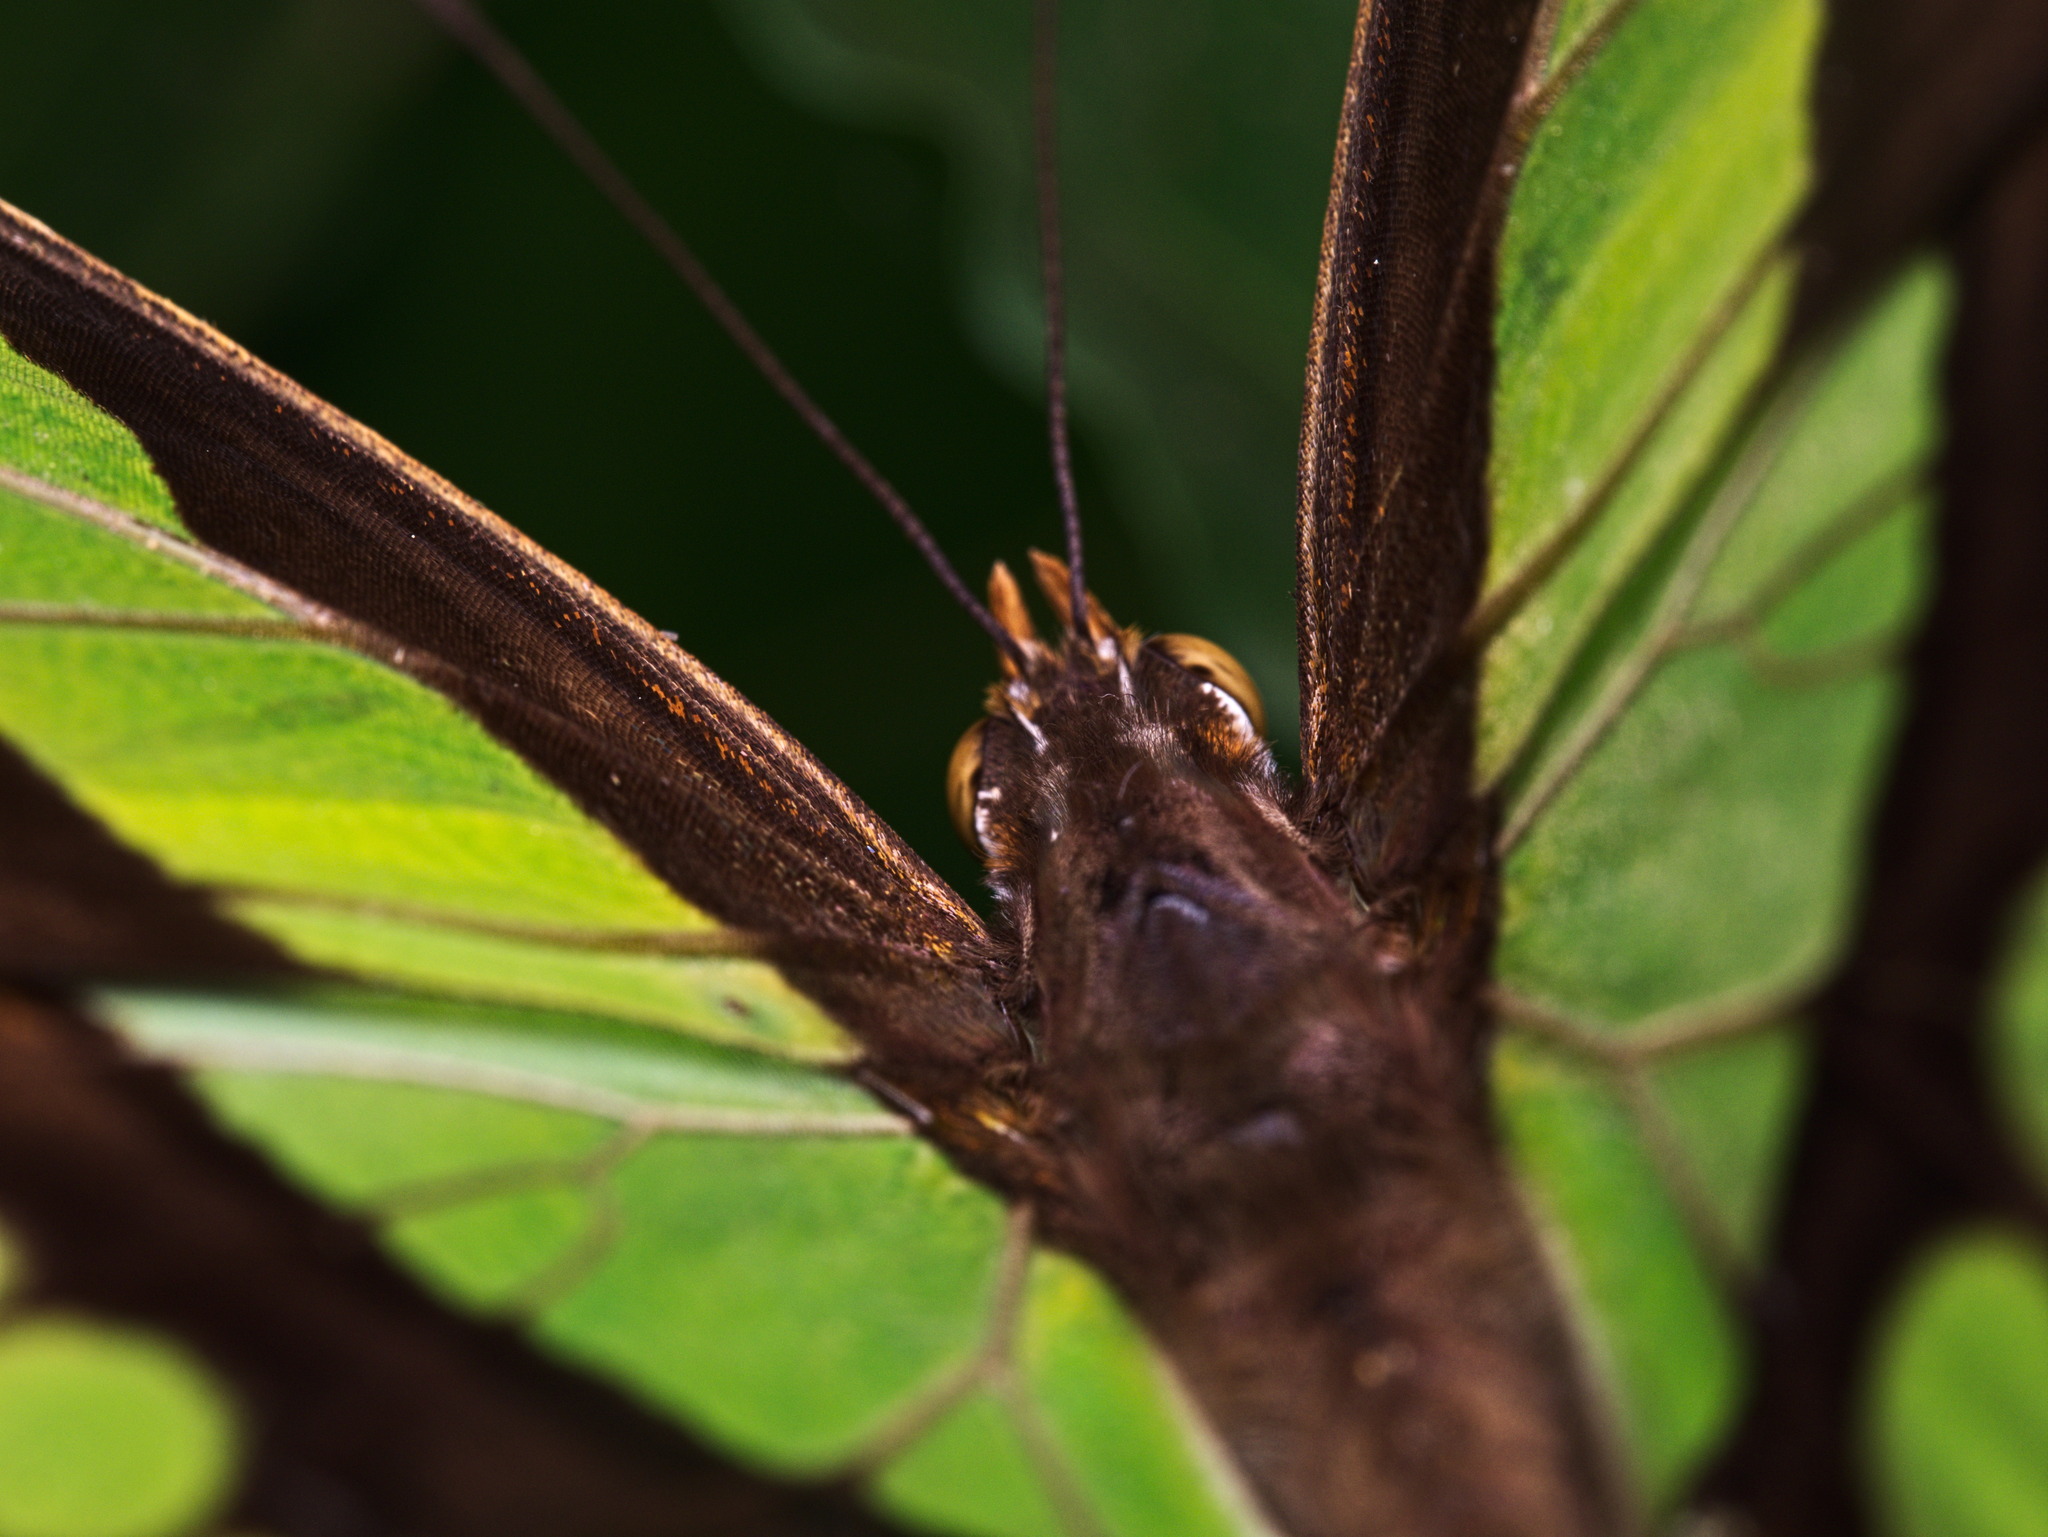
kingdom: Animalia
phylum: Arthropoda
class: Insecta
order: Lepidoptera
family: Nymphalidae
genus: Siproeta
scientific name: Siproeta stelenes
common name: Malachite
